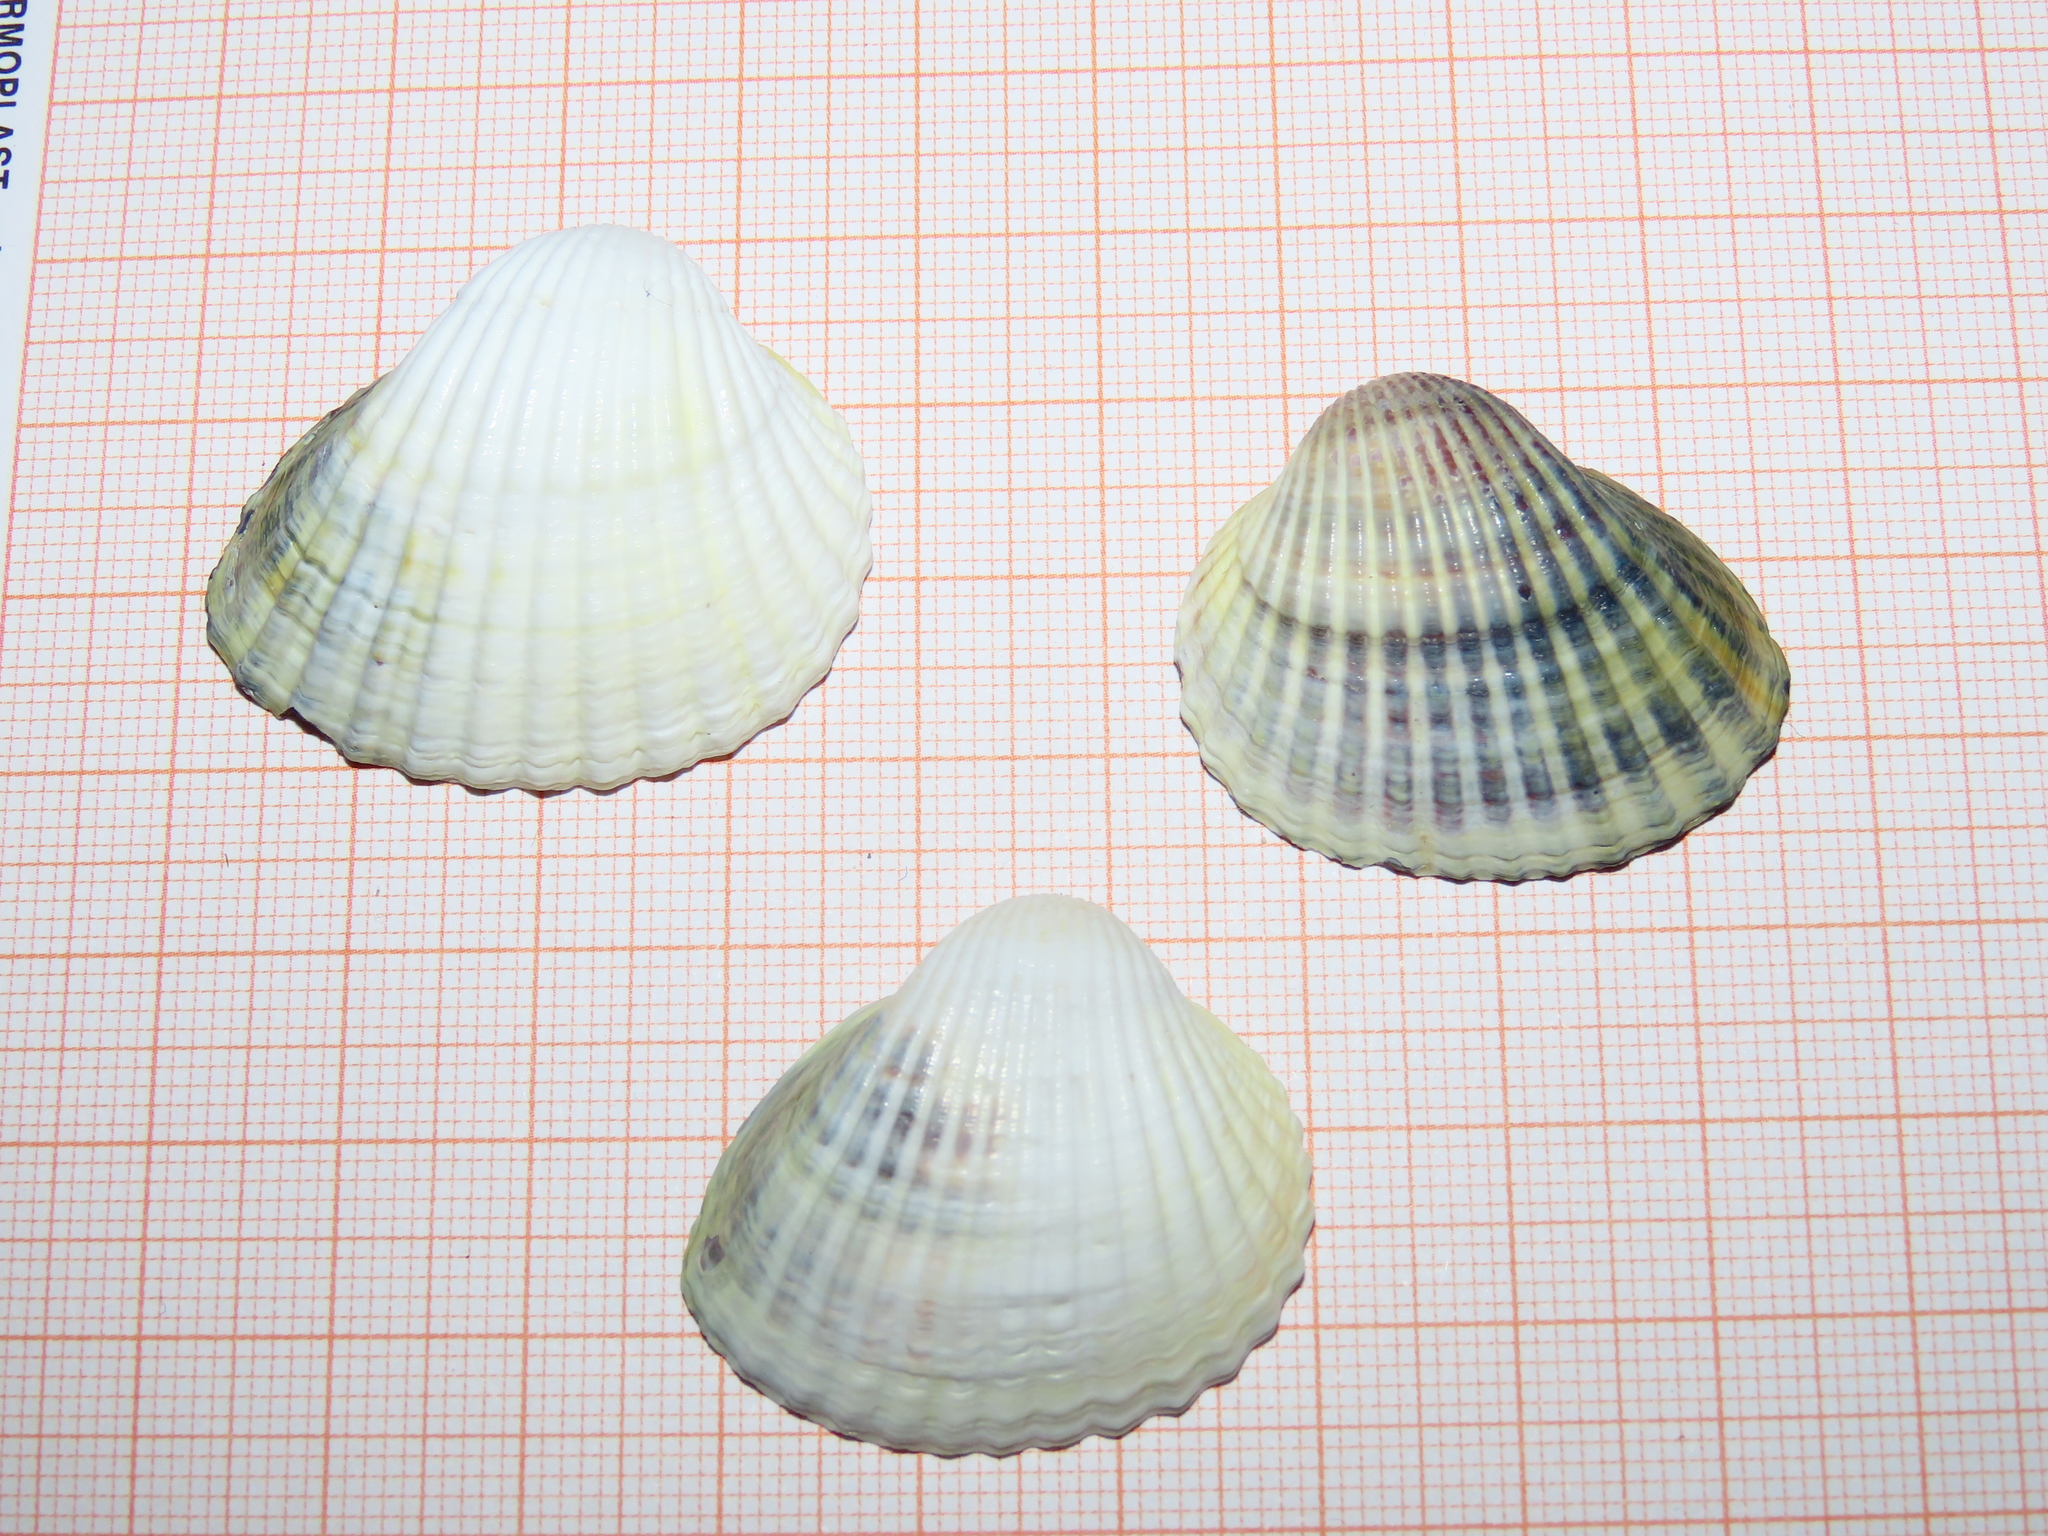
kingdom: Animalia
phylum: Mollusca
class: Bivalvia
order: Cardiida
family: Cardiidae
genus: Cerastoderma
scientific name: Cerastoderma glaucum
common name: Lagoon cockle
